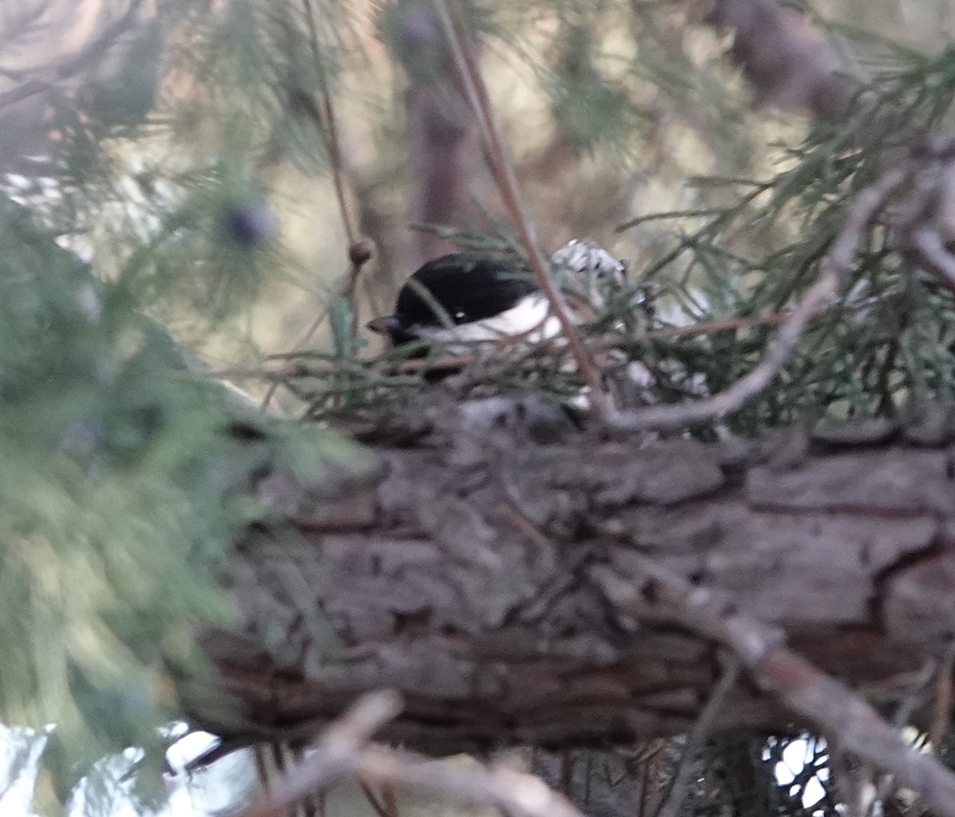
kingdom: Animalia
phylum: Chordata
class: Aves
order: Passeriformes
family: Paridae
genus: Poecile
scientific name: Poecile atricapillus
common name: Black-capped chickadee
